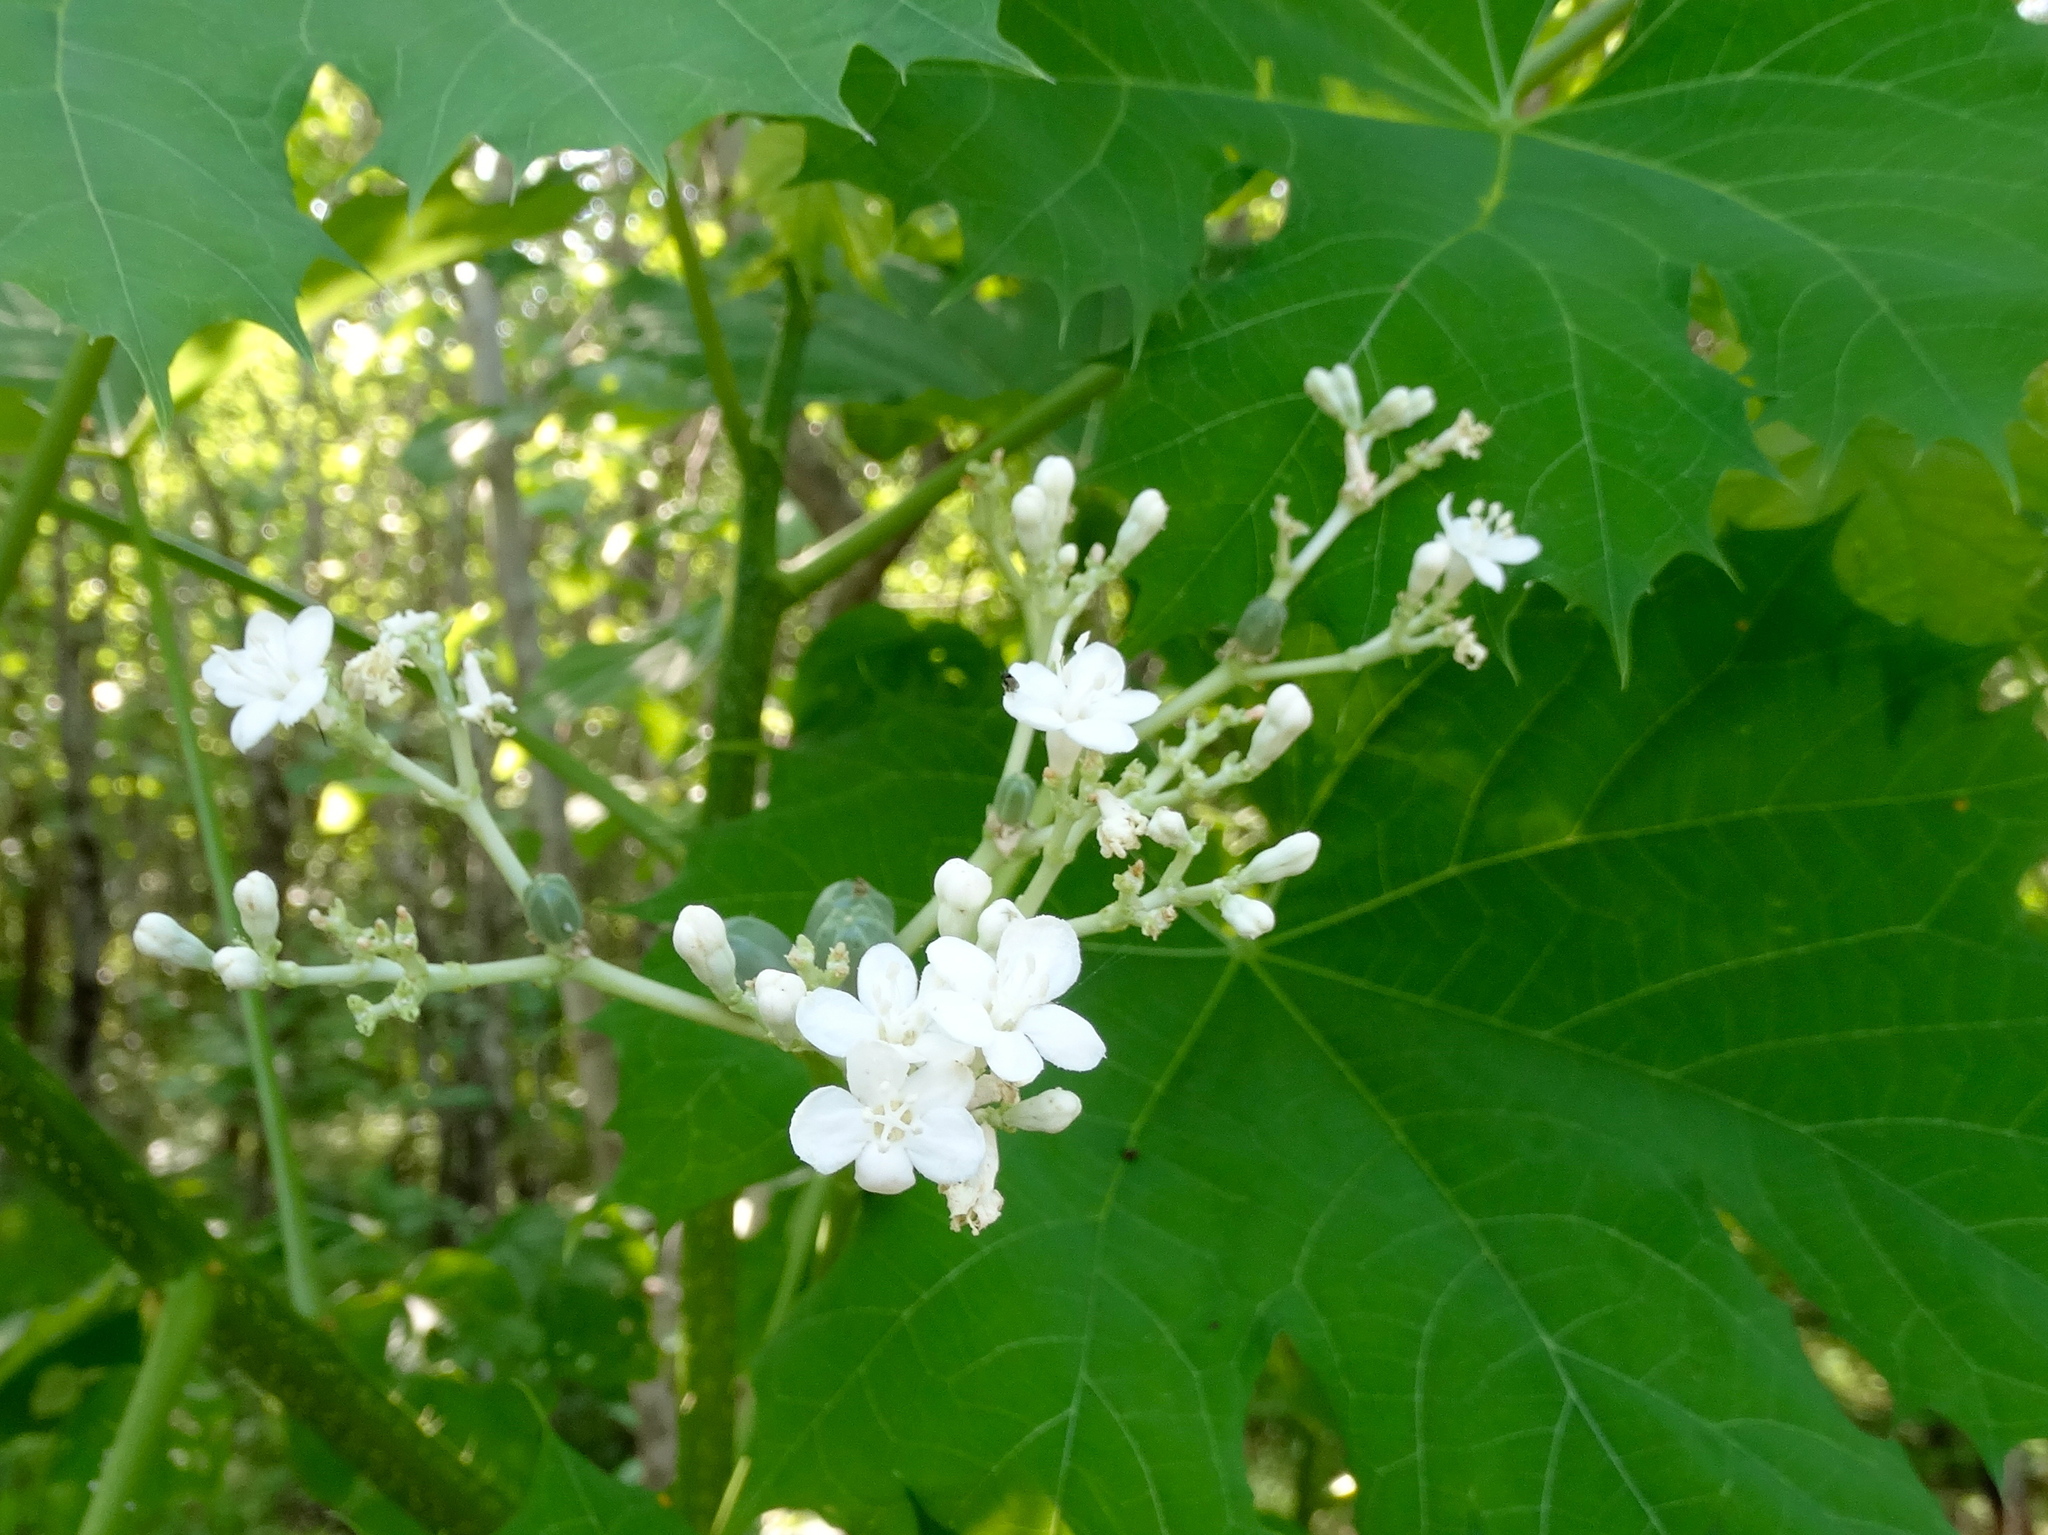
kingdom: Plantae
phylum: Tracheophyta
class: Magnoliopsida
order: Malpighiales
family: Euphorbiaceae
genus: Cnidoscolus
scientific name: Cnidoscolus aconitifolius
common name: Cabbage-star
